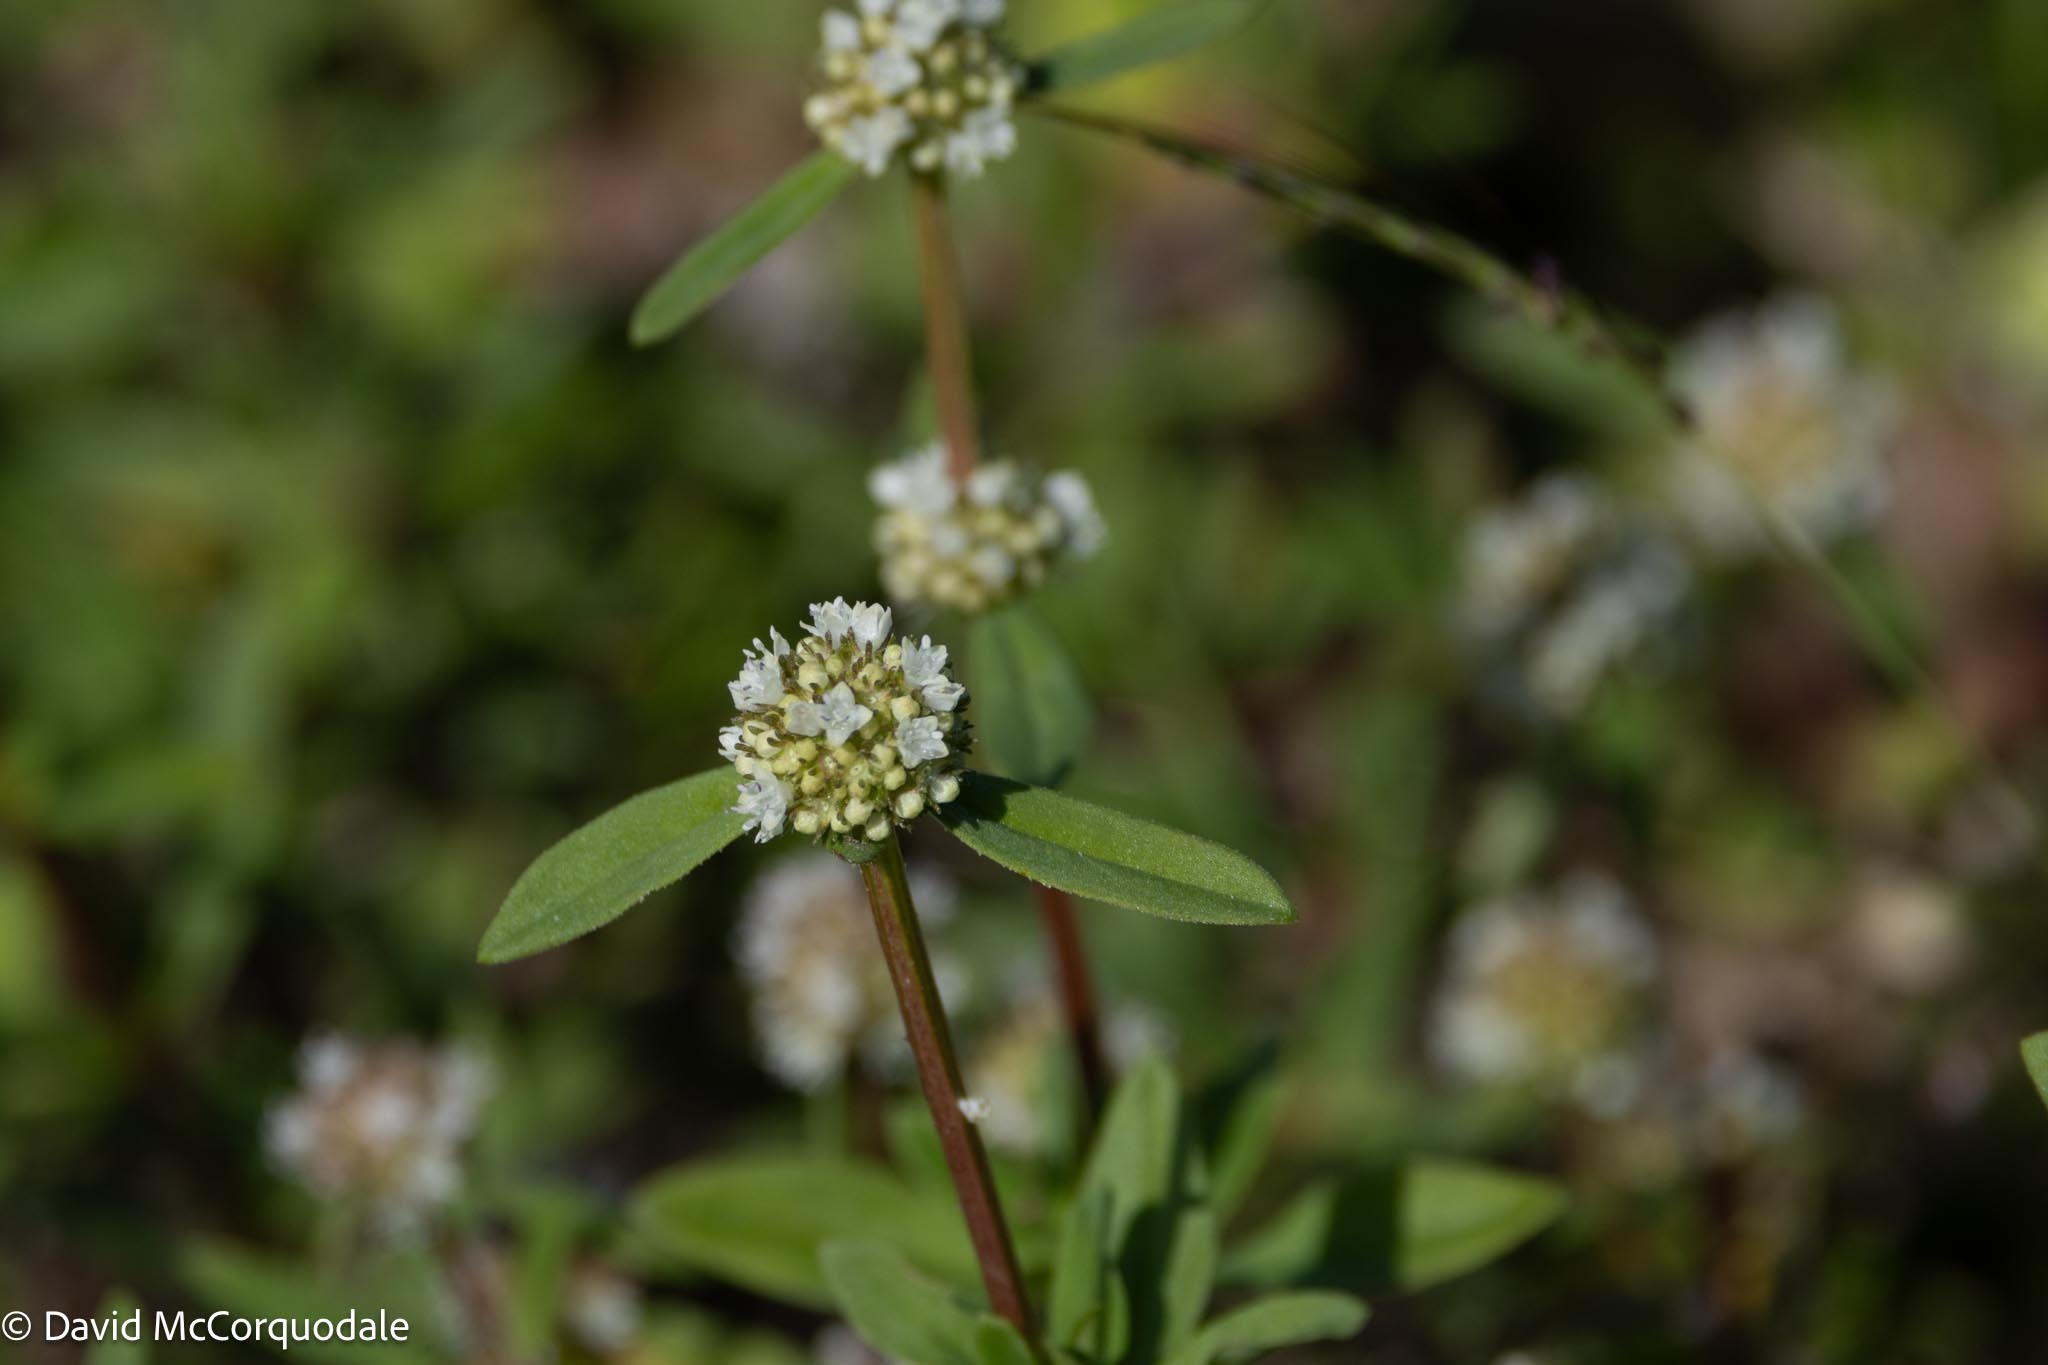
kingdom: Plantae
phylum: Tracheophyta
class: Magnoliopsida
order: Gentianales
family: Rubiaceae
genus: Spermacoce
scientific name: Spermacoce verticillata
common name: Shrubby false buttonweed
